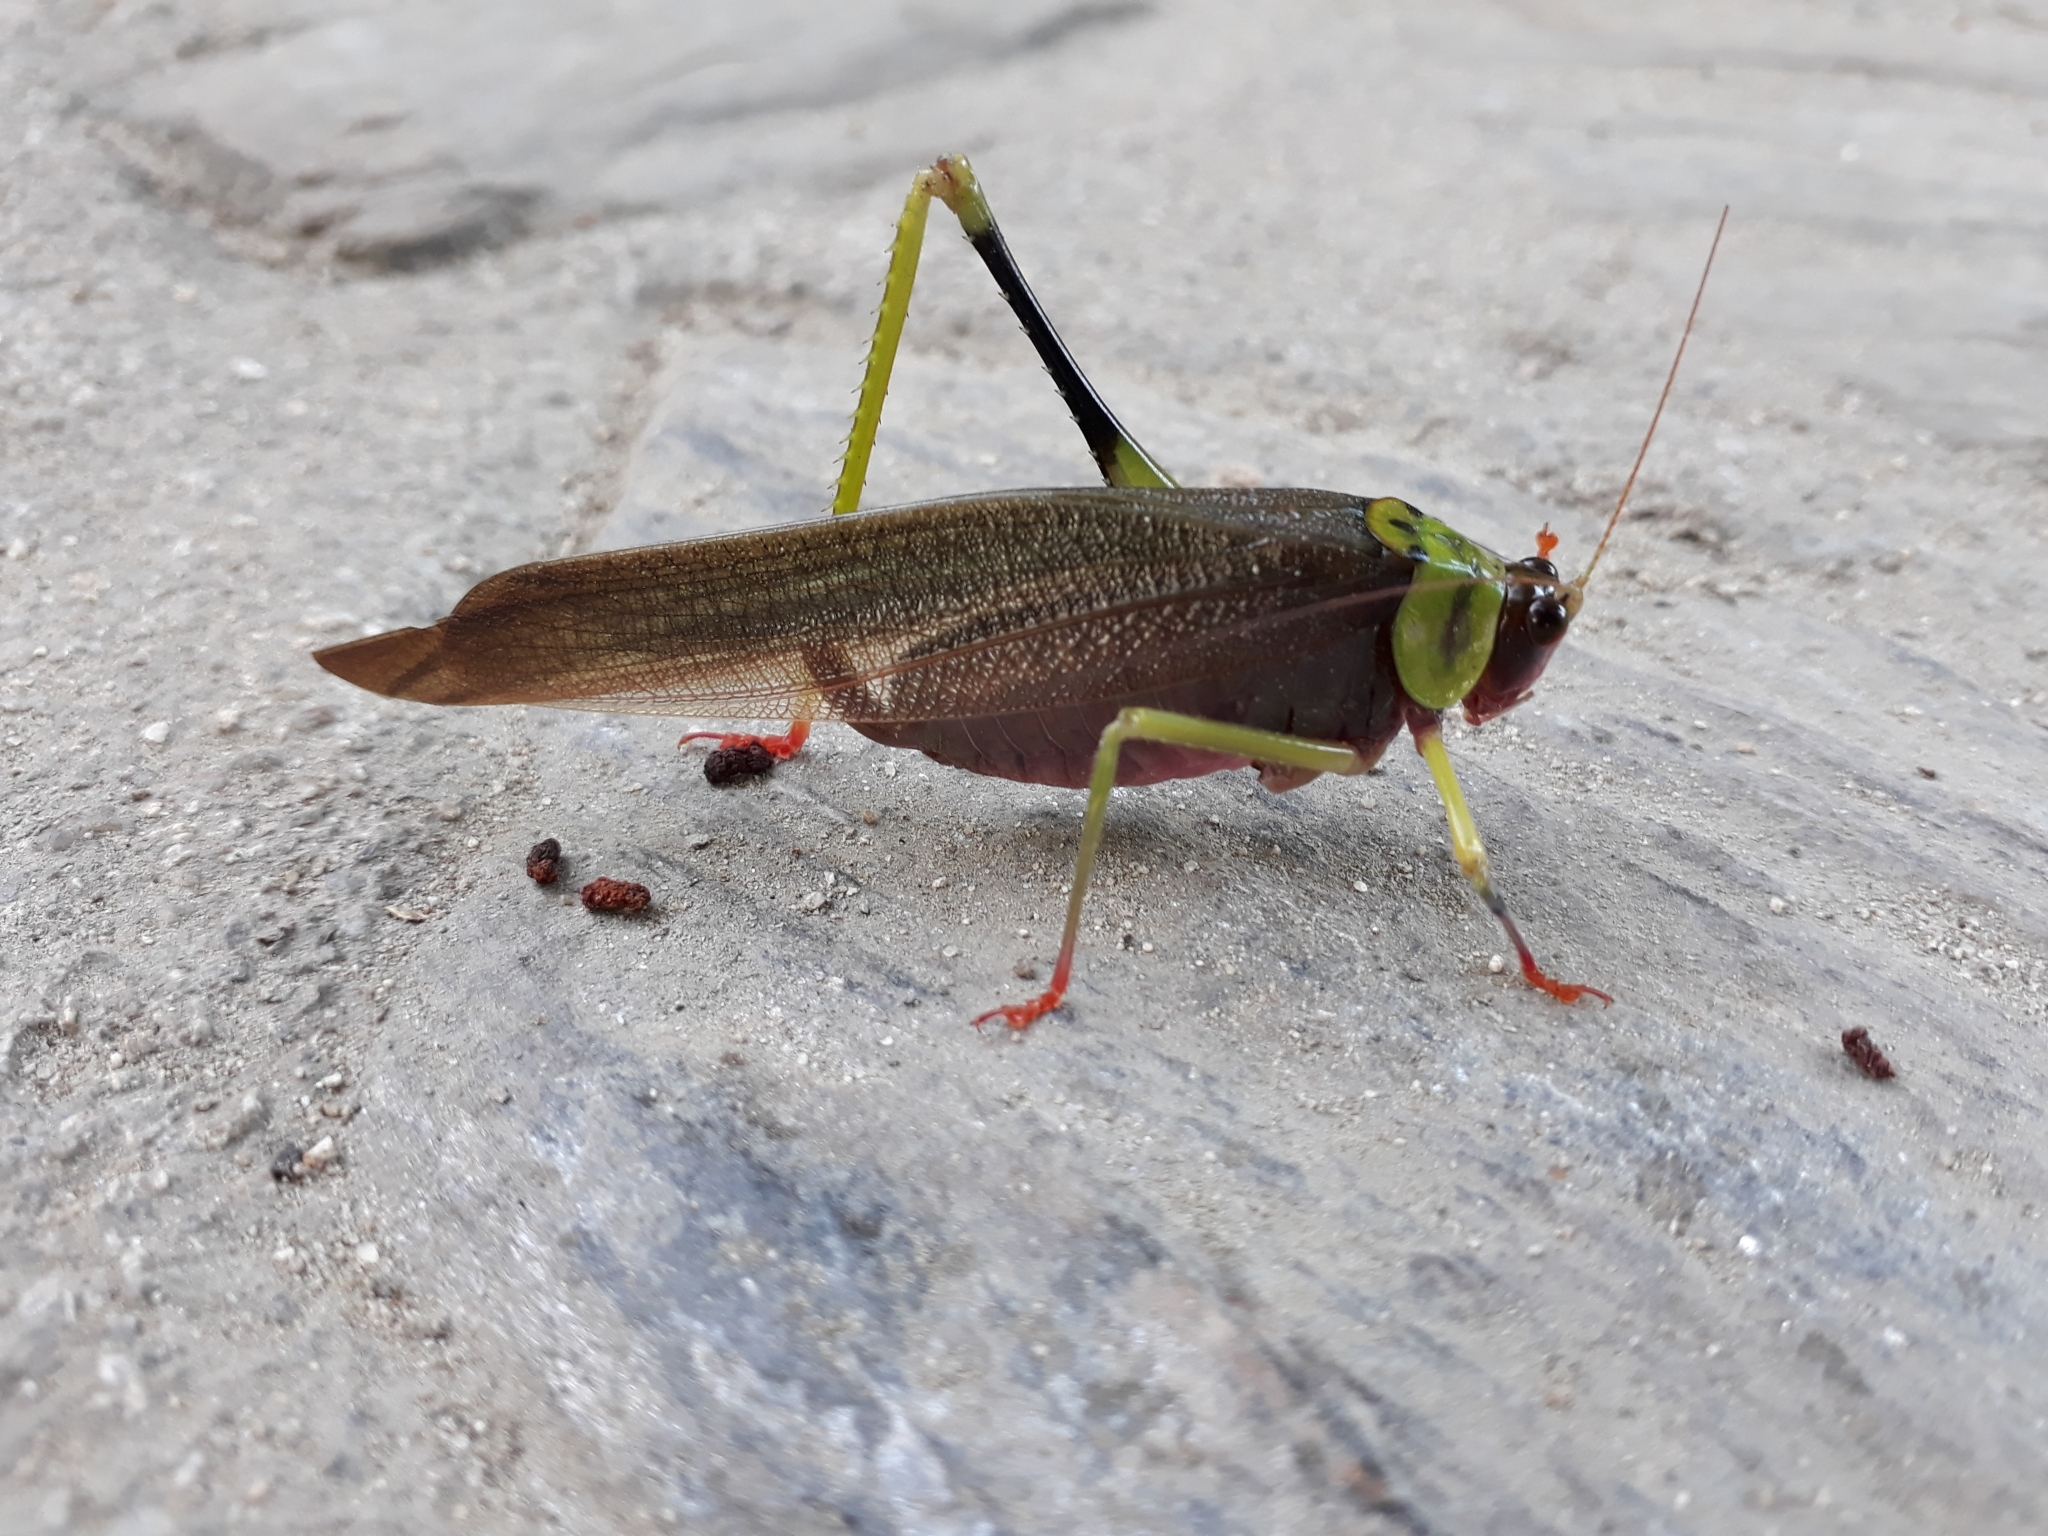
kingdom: Animalia
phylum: Arthropoda
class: Insecta
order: Orthoptera
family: Tettigoniidae
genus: Euceraia
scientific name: Euceraia insignis
